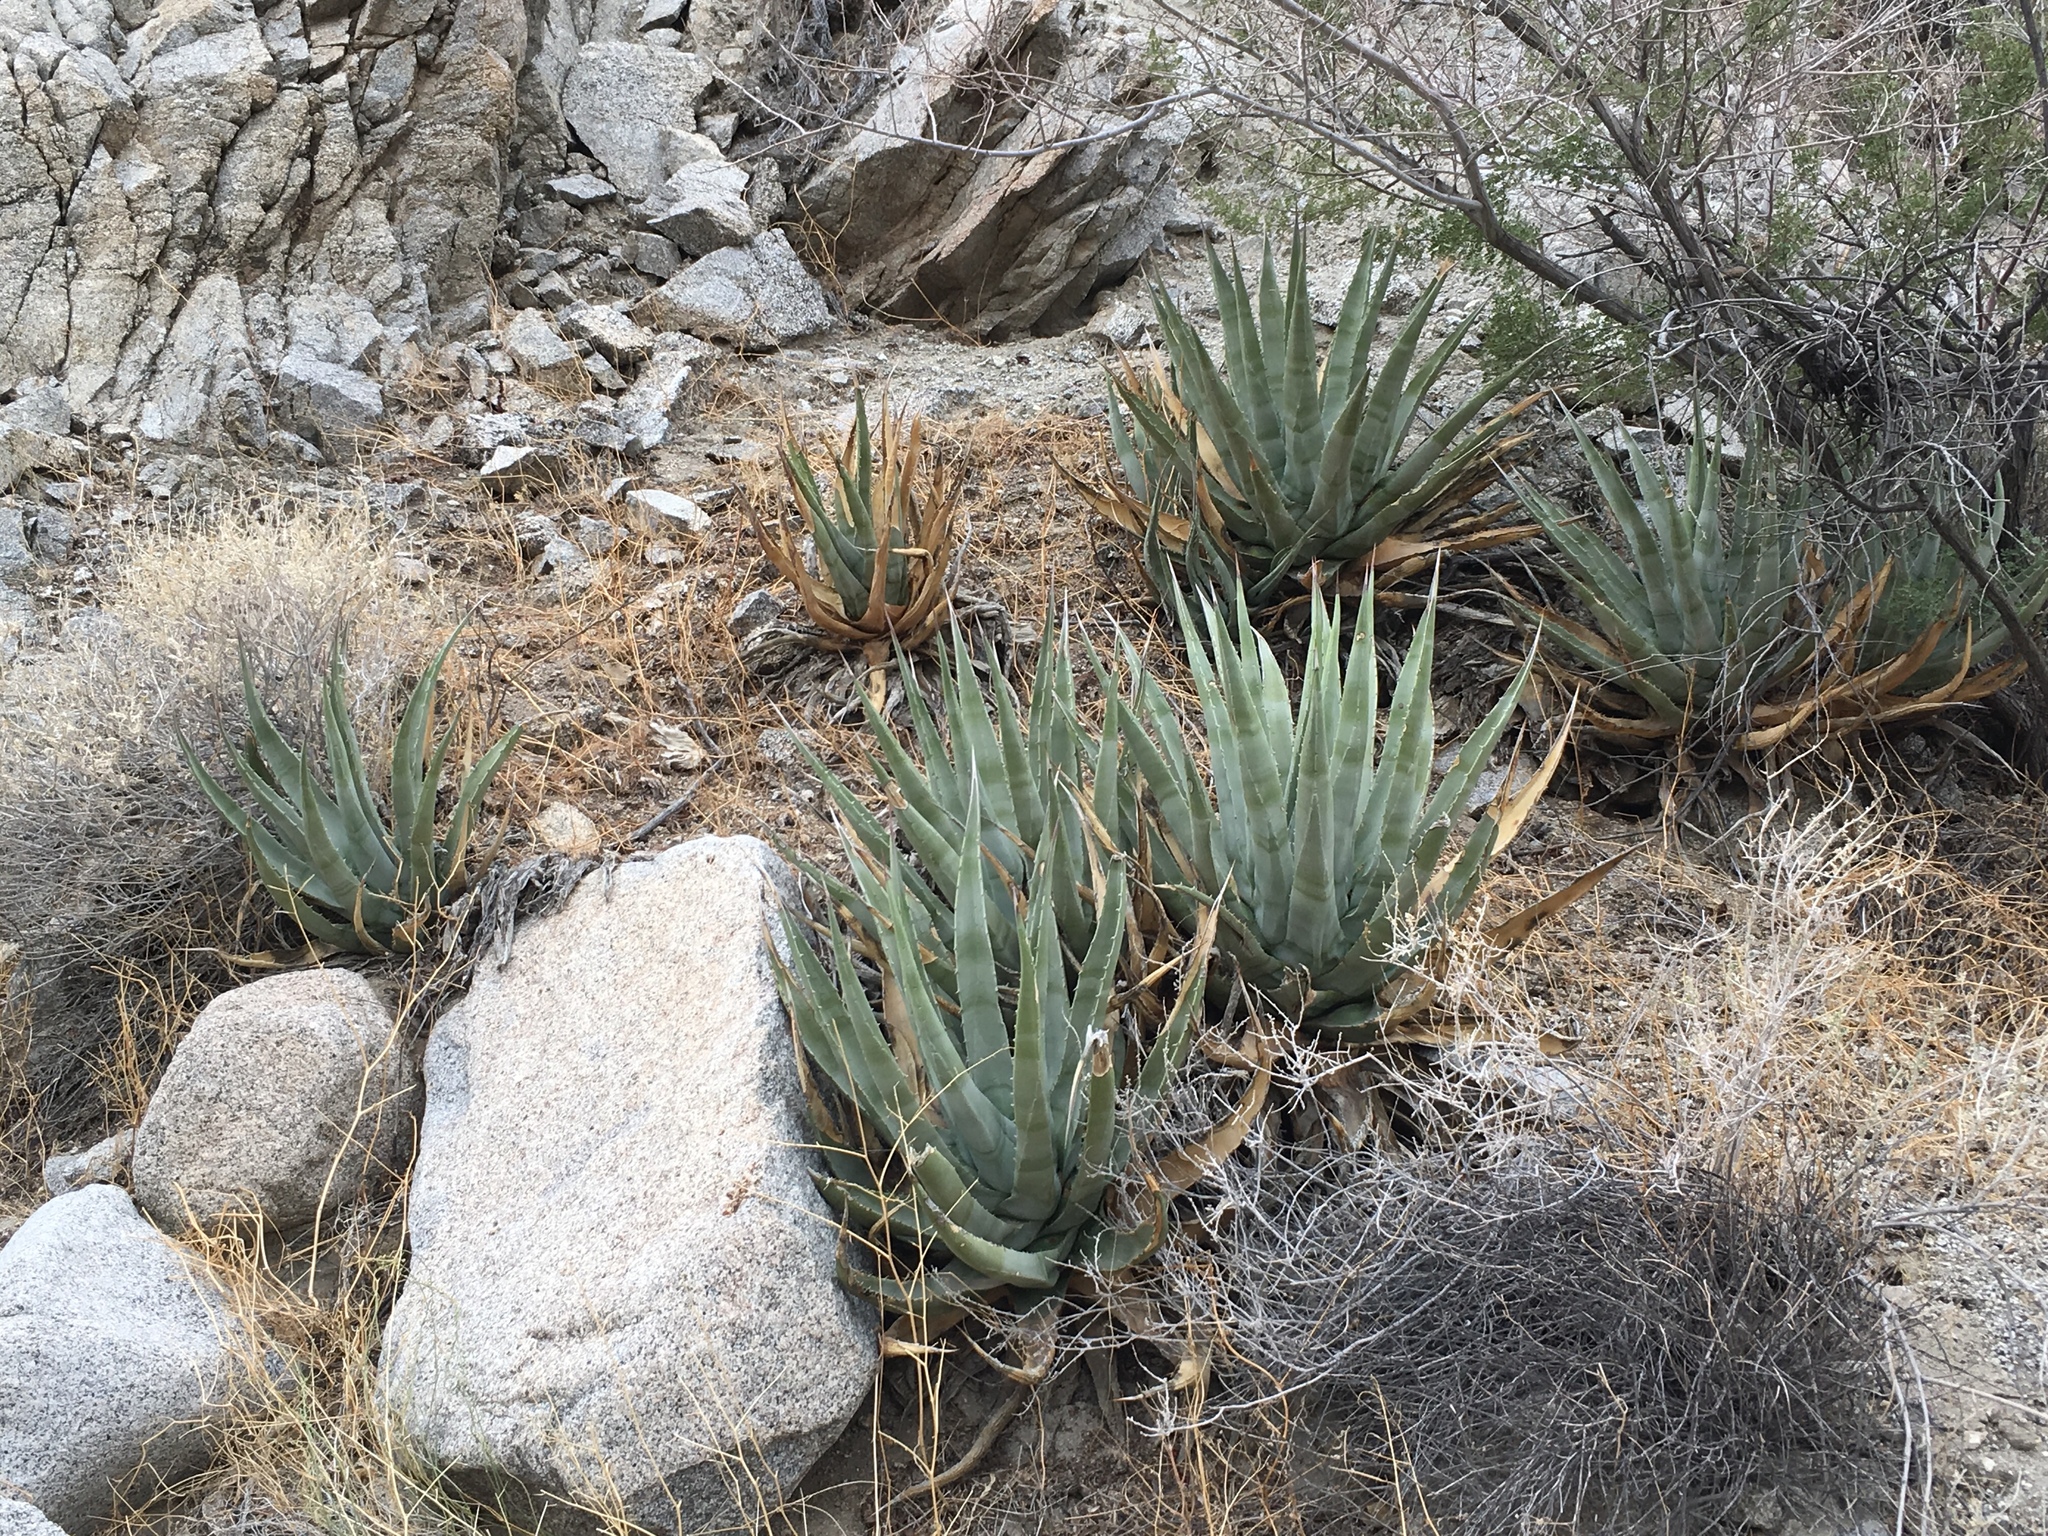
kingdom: Plantae
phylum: Tracheophyta
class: Liliopsida
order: Asparagales
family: Asparagaceae
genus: Agave
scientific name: Agave deserti
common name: Desert agave
